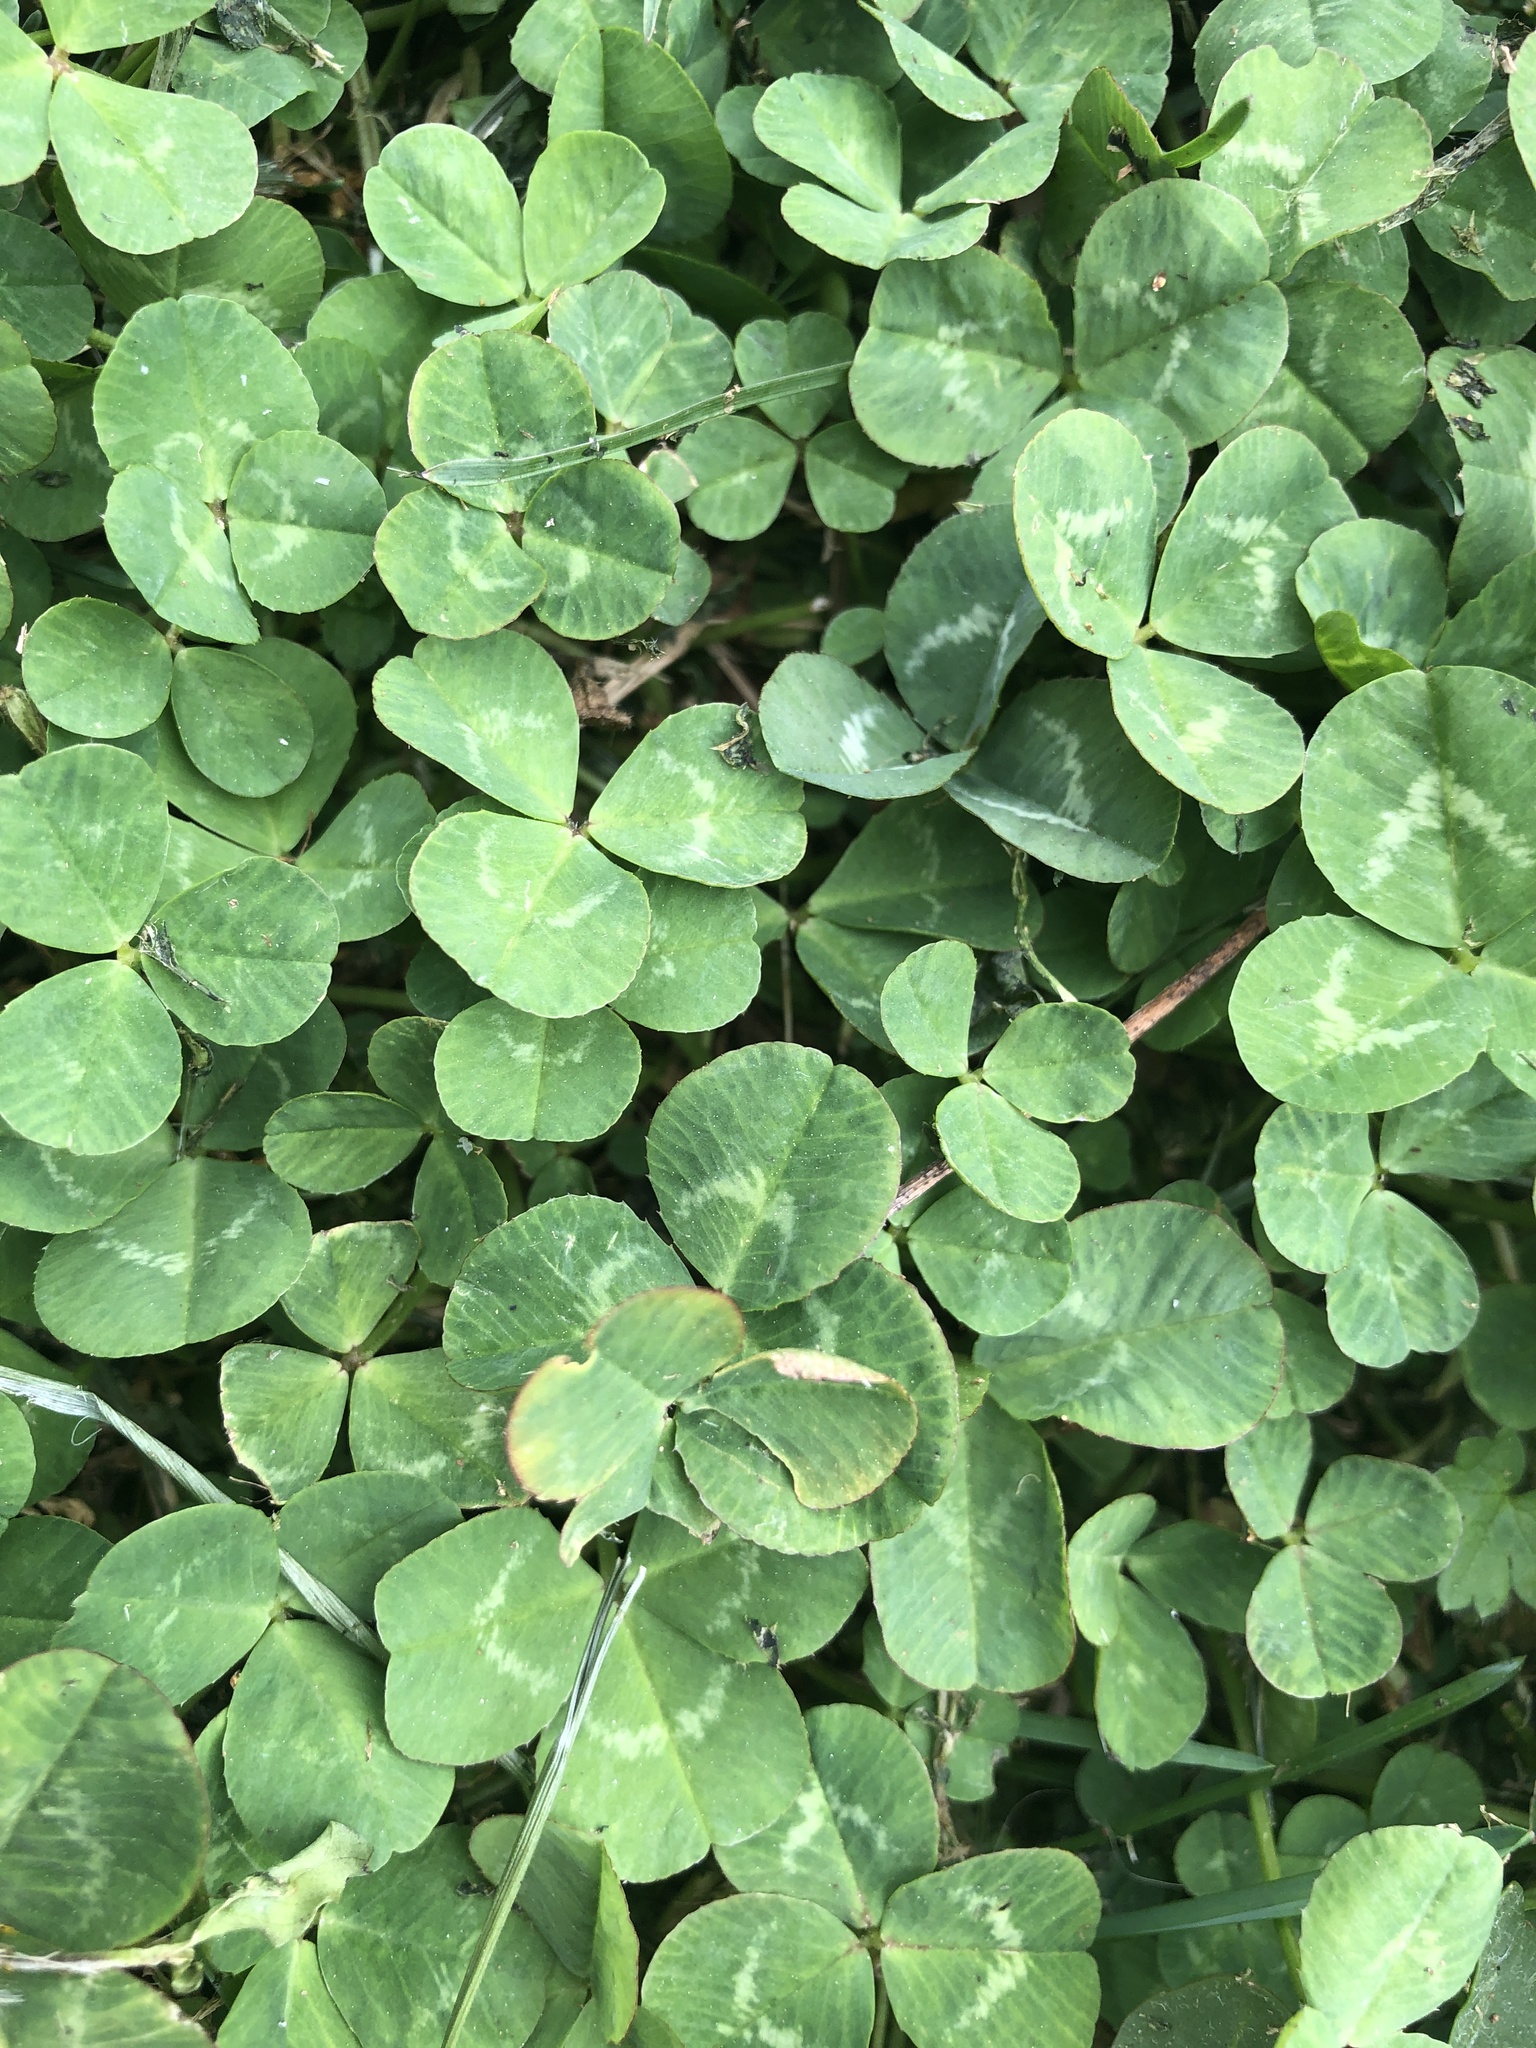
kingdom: Plantae
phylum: Tracheophyta
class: Magnoliopsida
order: Fabales
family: Fabaceae
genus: Trifolium
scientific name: Trifolium repens
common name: White clover
